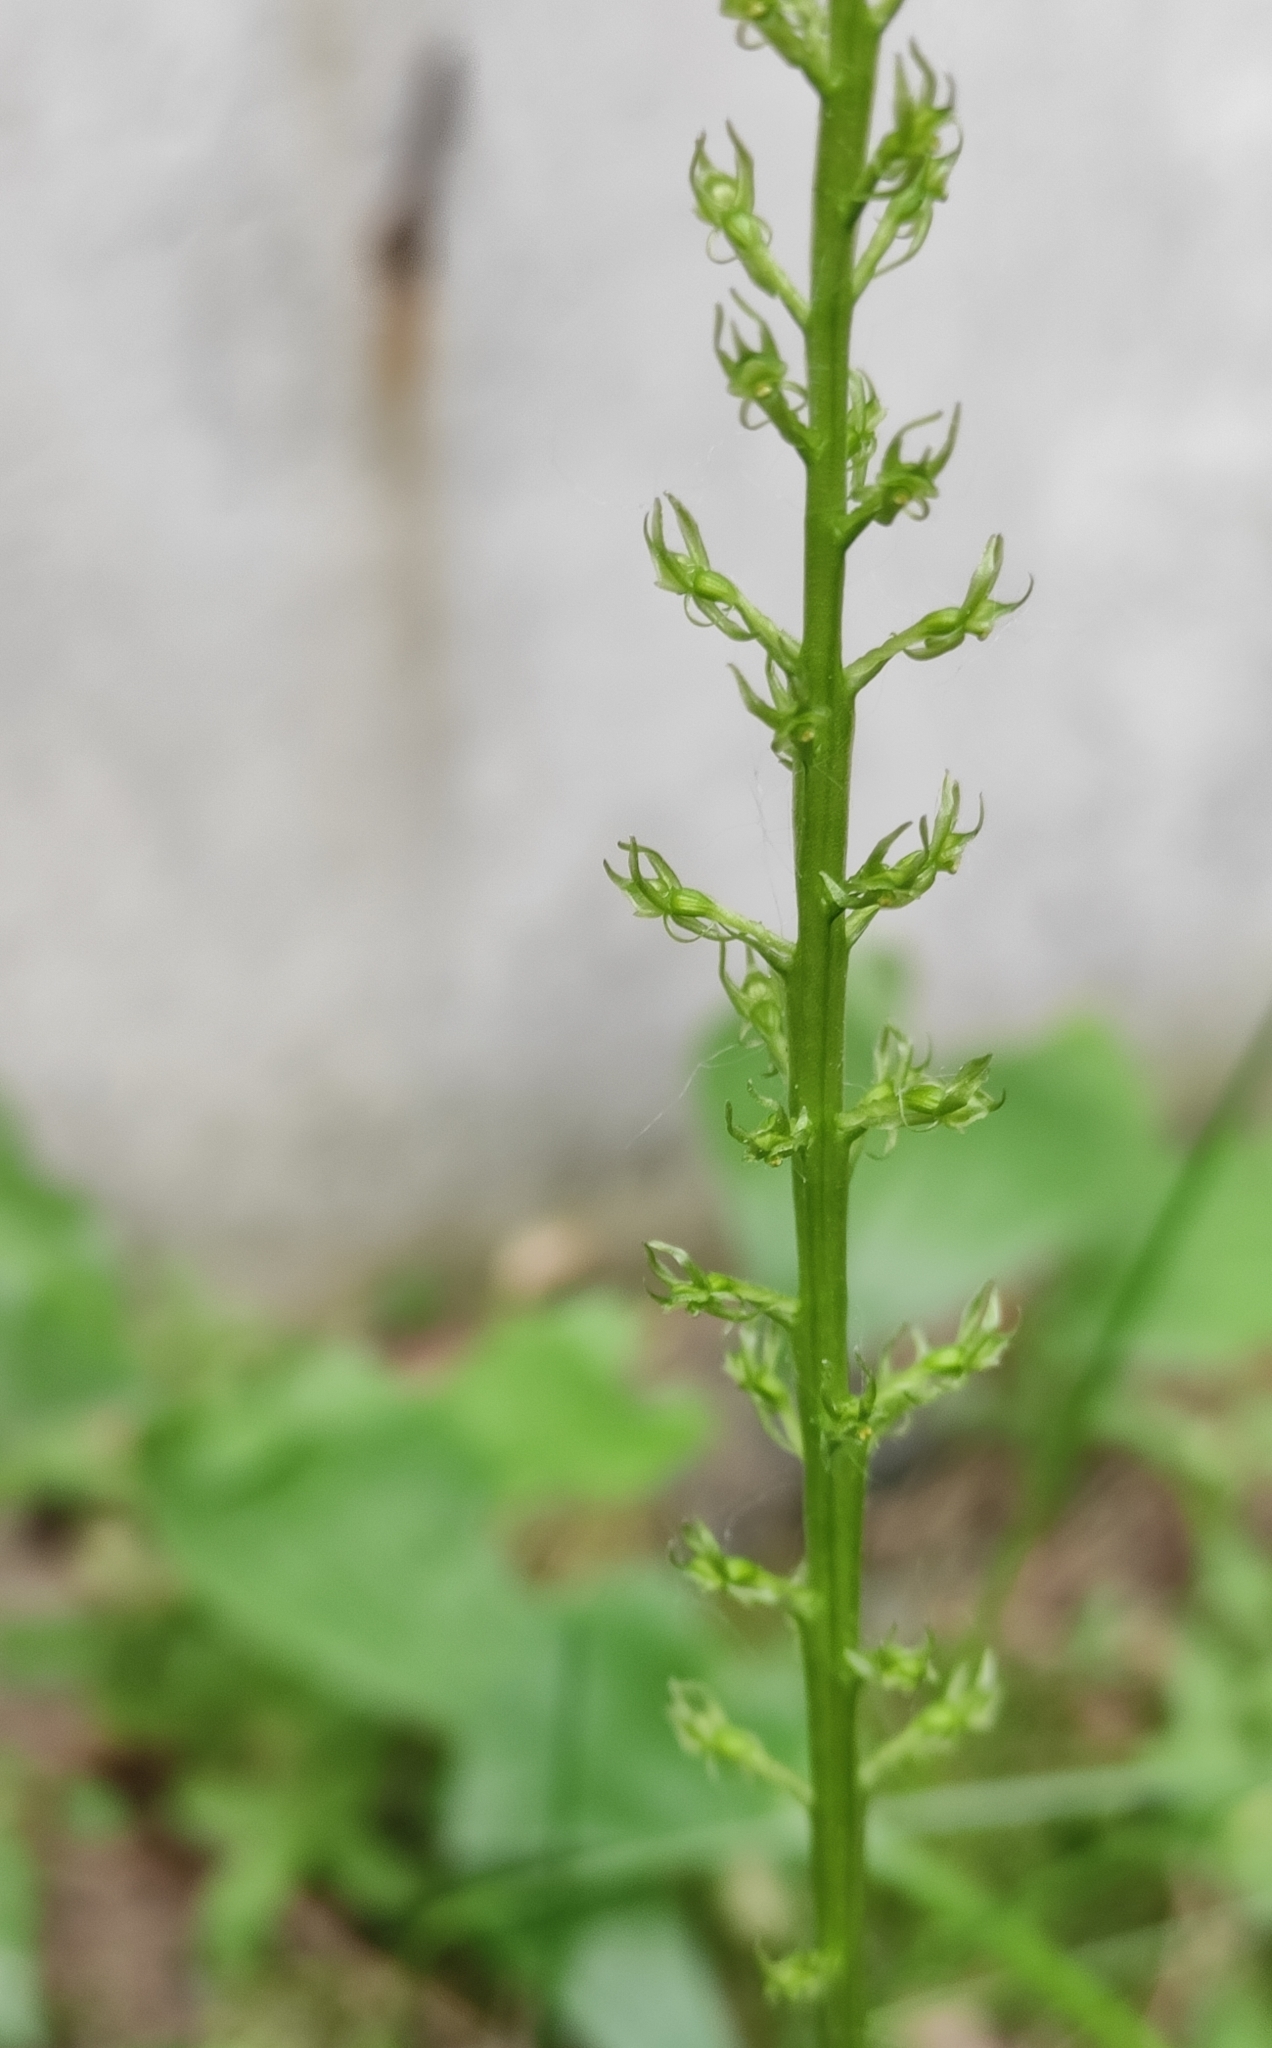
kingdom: Plantae
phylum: Tracheophyta
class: Liliopsida
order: Asparagales
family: Orchidaceae
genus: Malaxis
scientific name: Malaxis monophyllos
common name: White adder's-mouth
